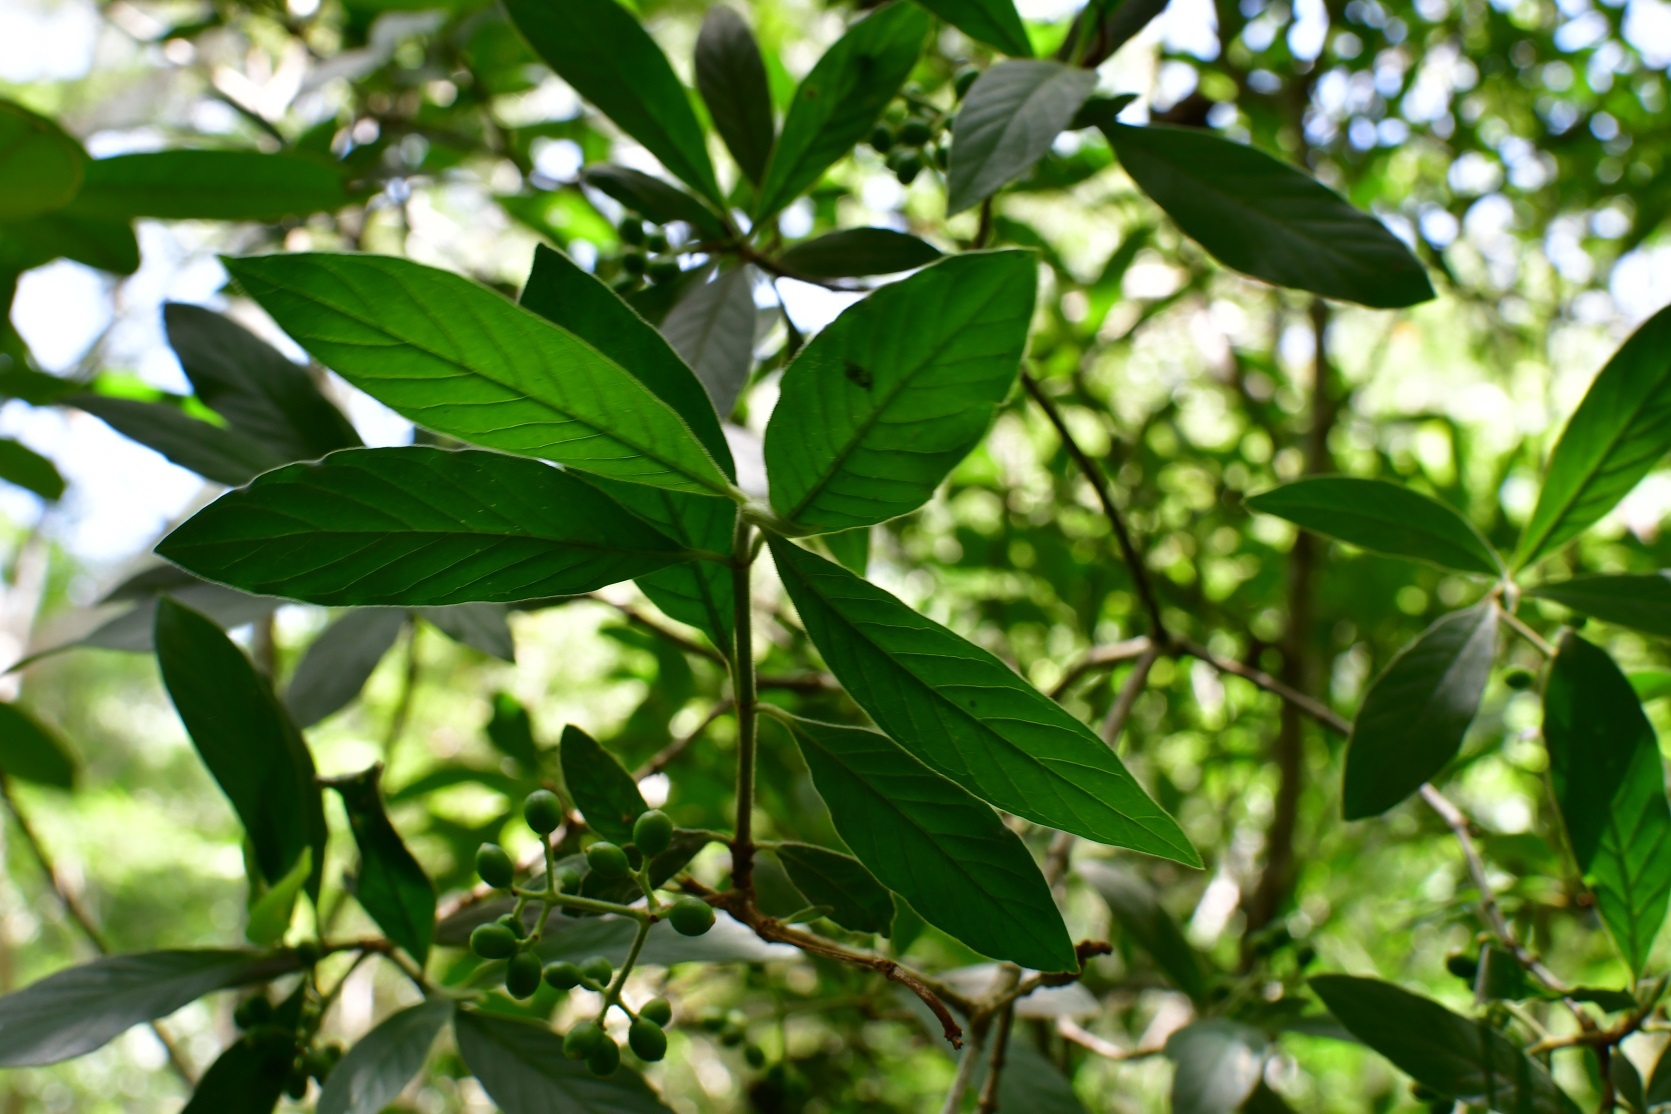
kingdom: Plantae
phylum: Tracheophyta
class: Magnoliopsida
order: Gentianales
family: Rubiaceae
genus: Psychotria
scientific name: Psychotria erythrocarpa
